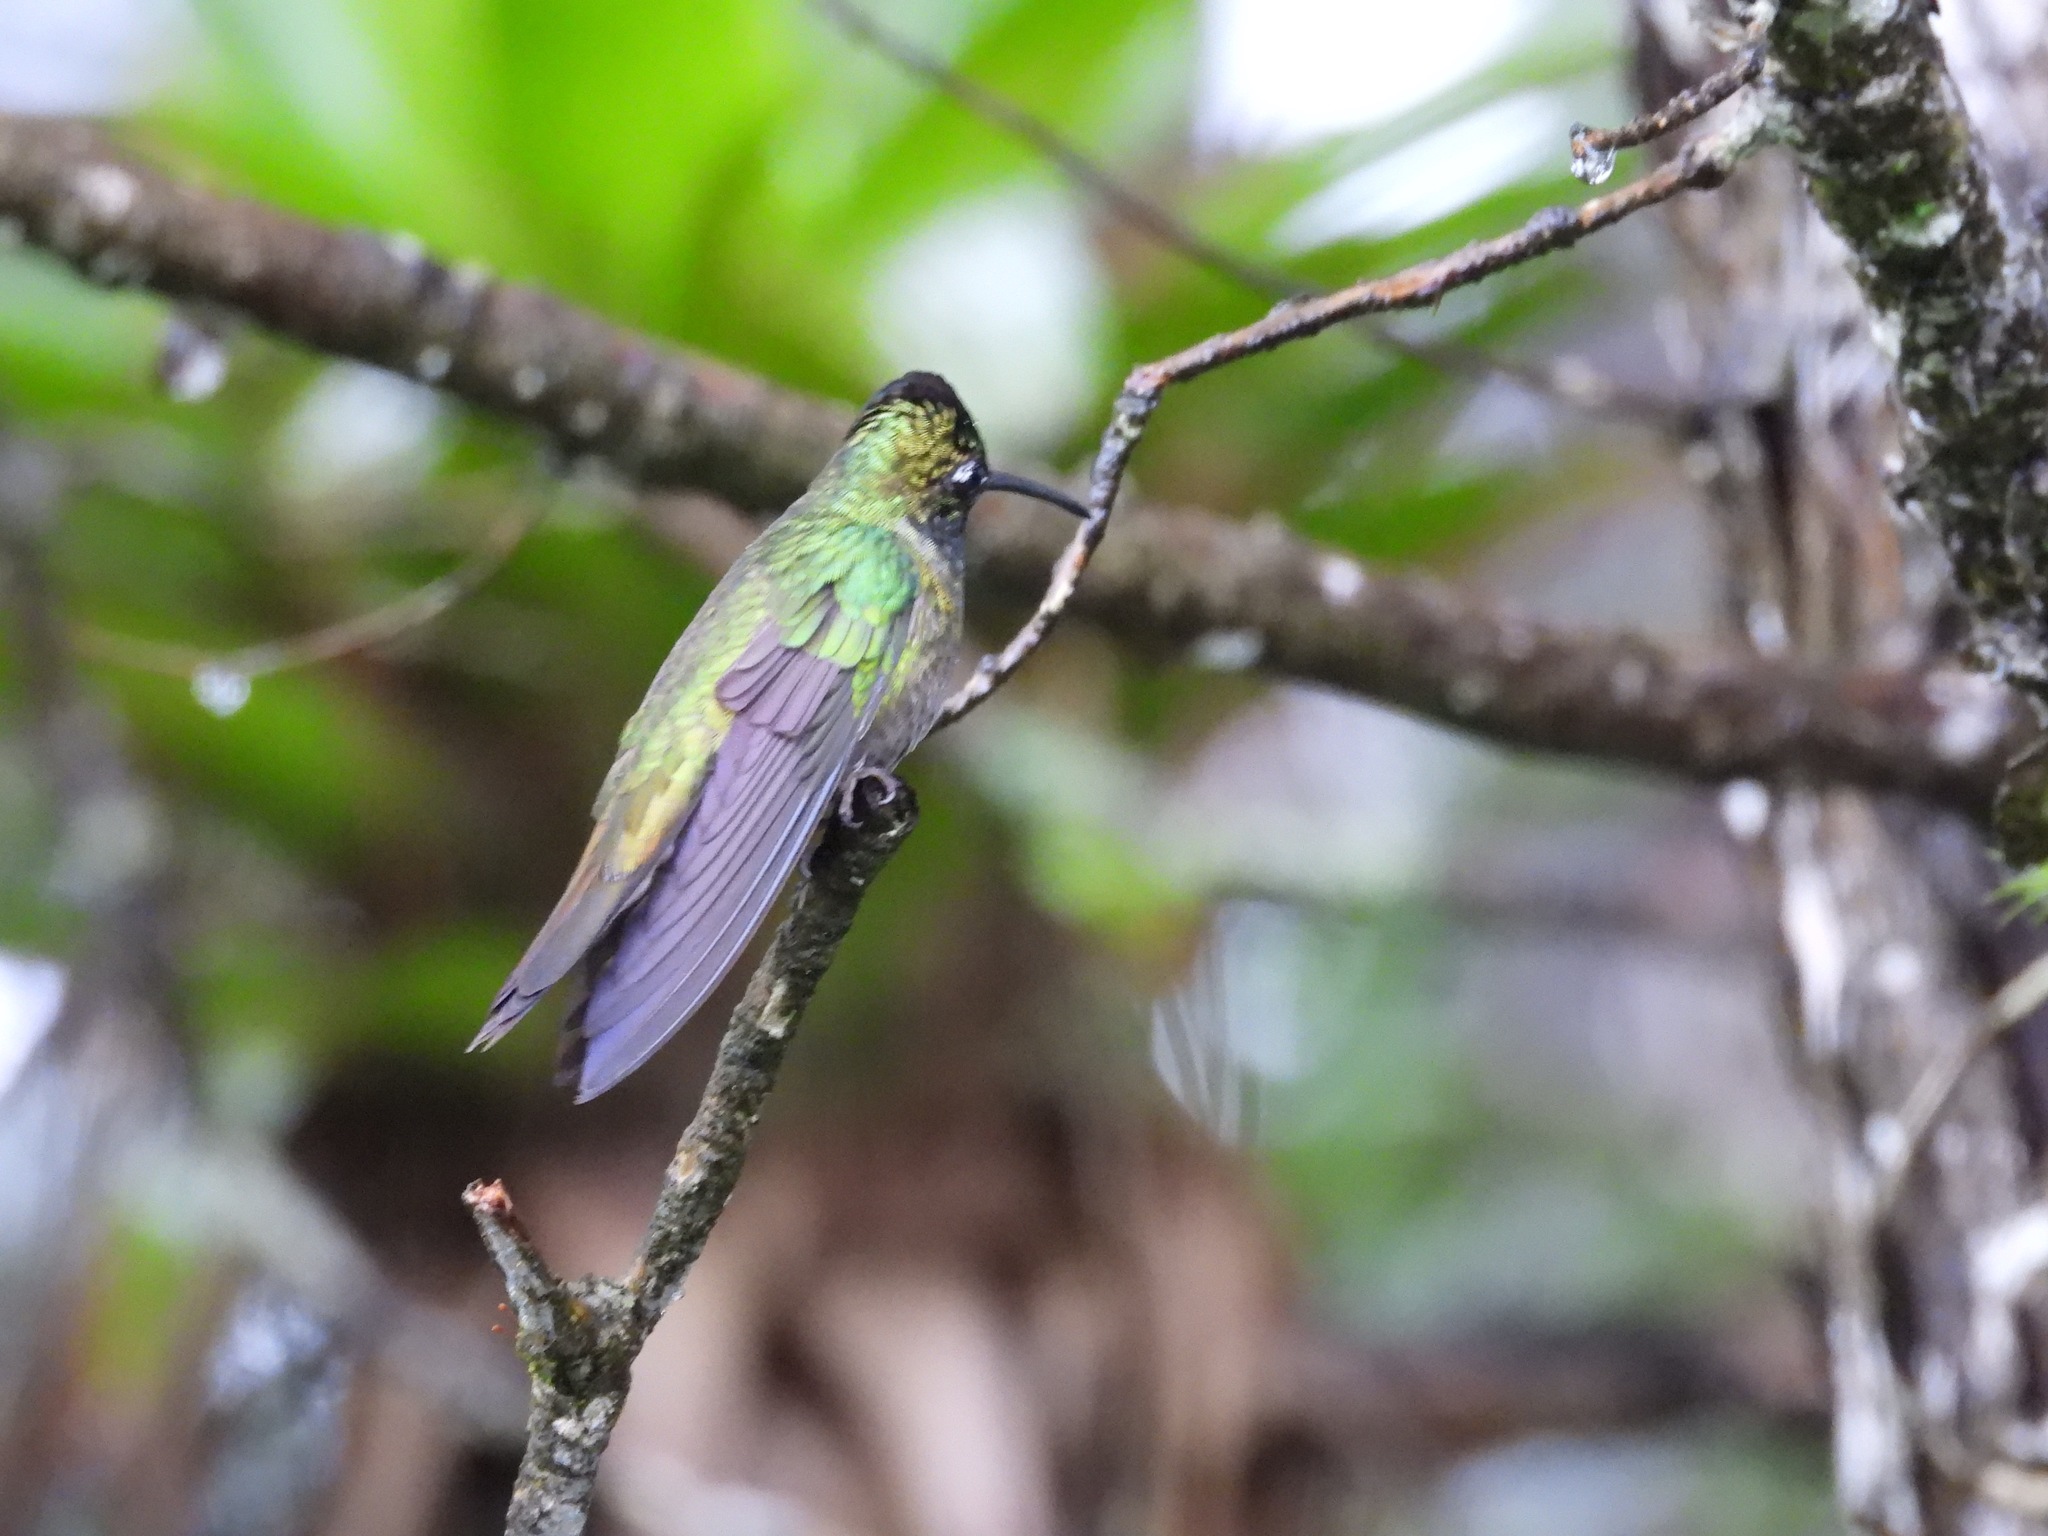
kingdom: Animalia
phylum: Chordata
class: Aves
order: Apodiformes
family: Trochilidae
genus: Eugenes
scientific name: Eugenes fulgens
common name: Magnificent hummingbird
